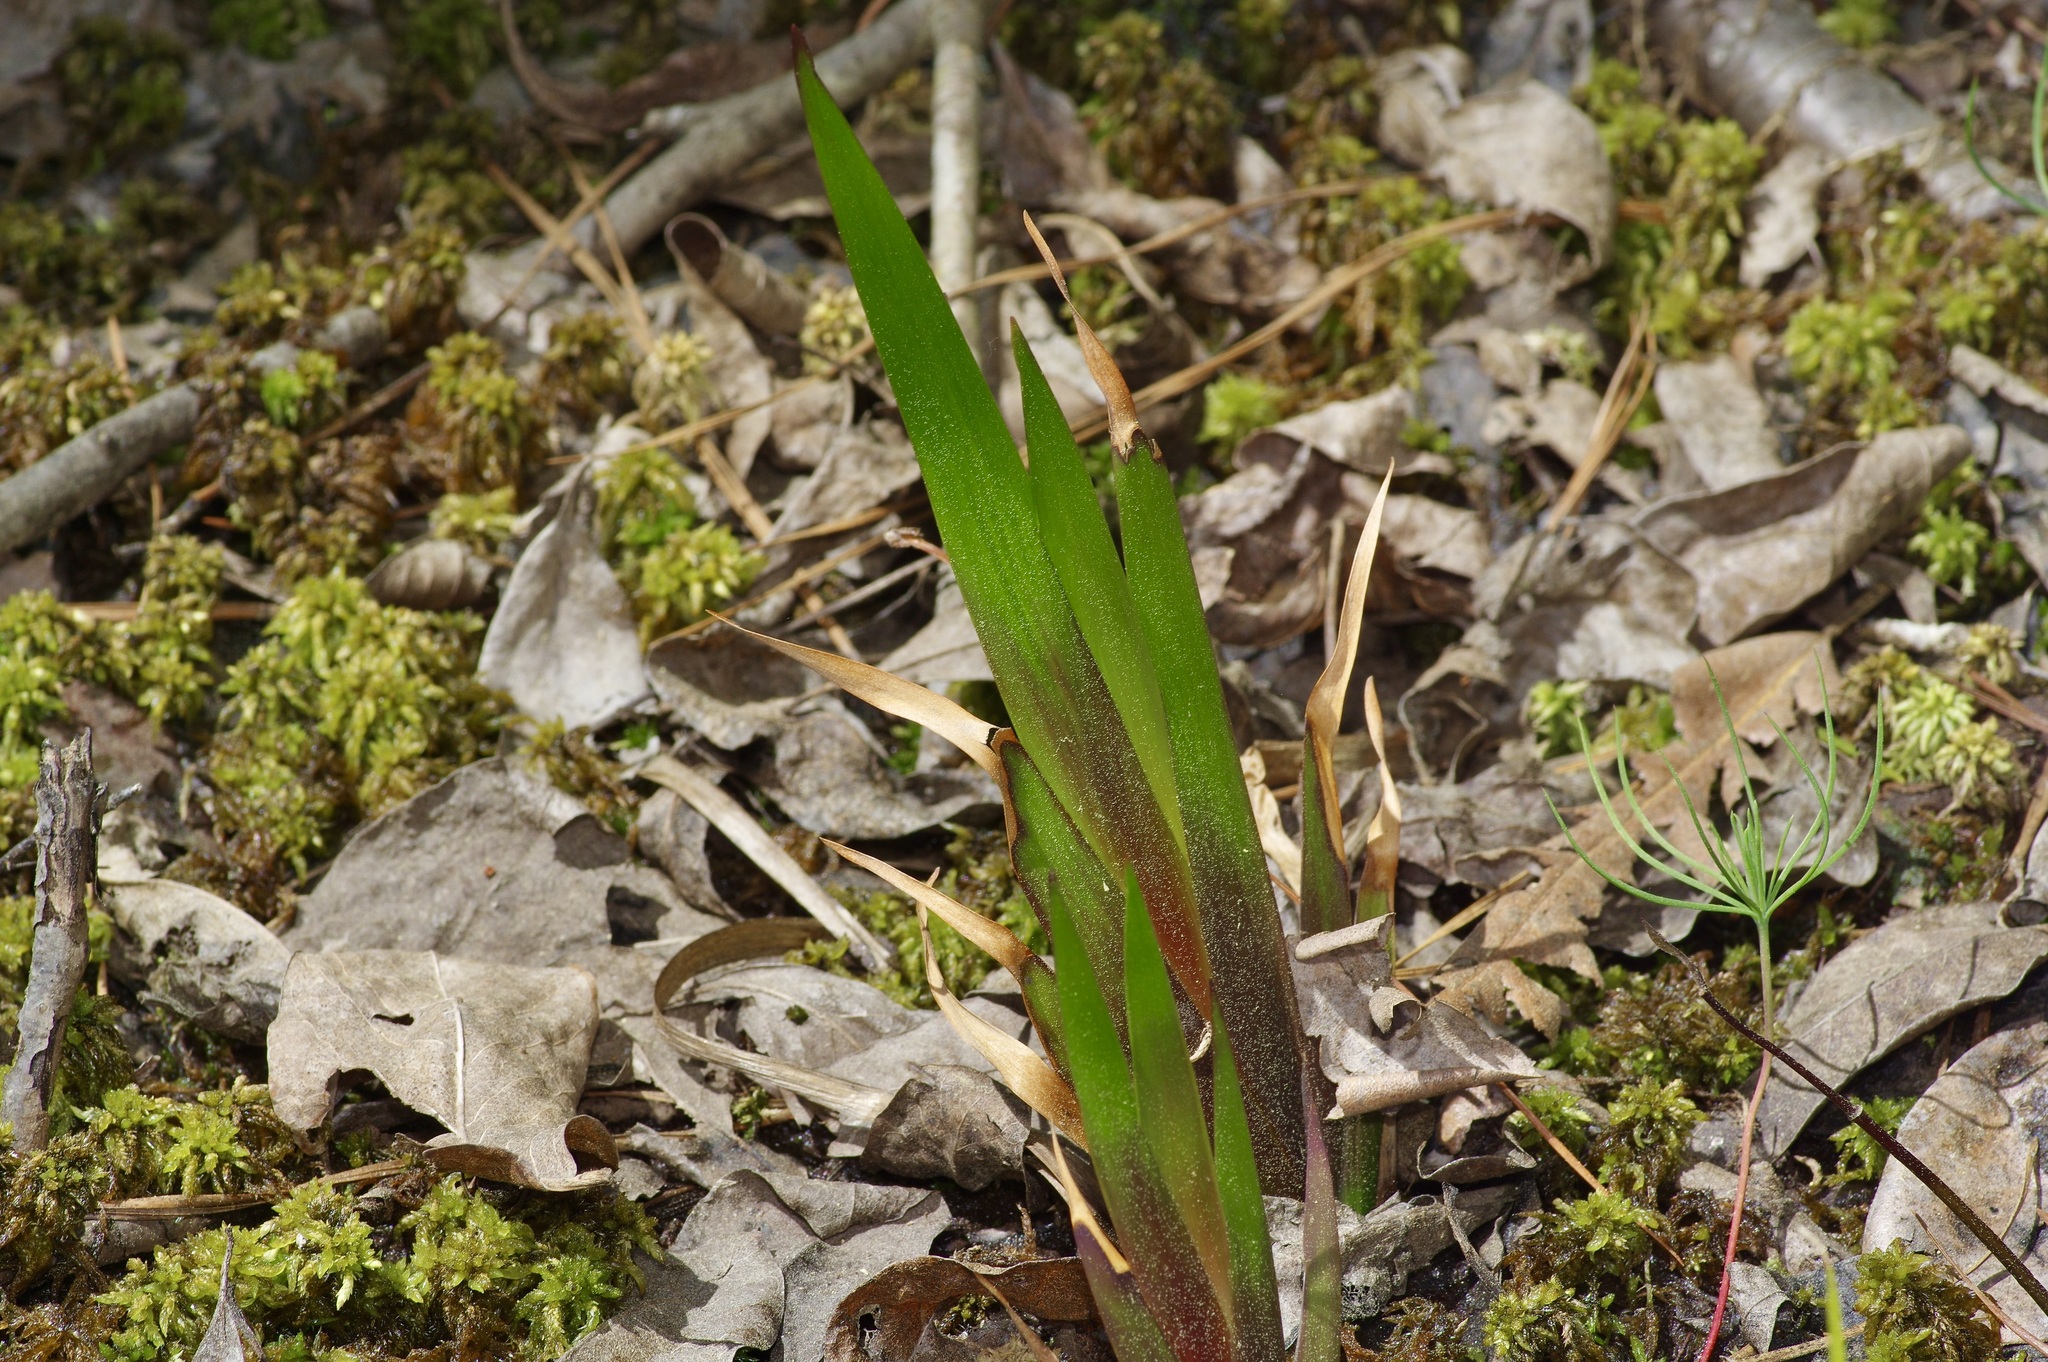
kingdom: Plantae
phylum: Tracheophyta
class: Liliopsida
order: Poales
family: Xyridaceae
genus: Xyris
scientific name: Xyris laxifolia
